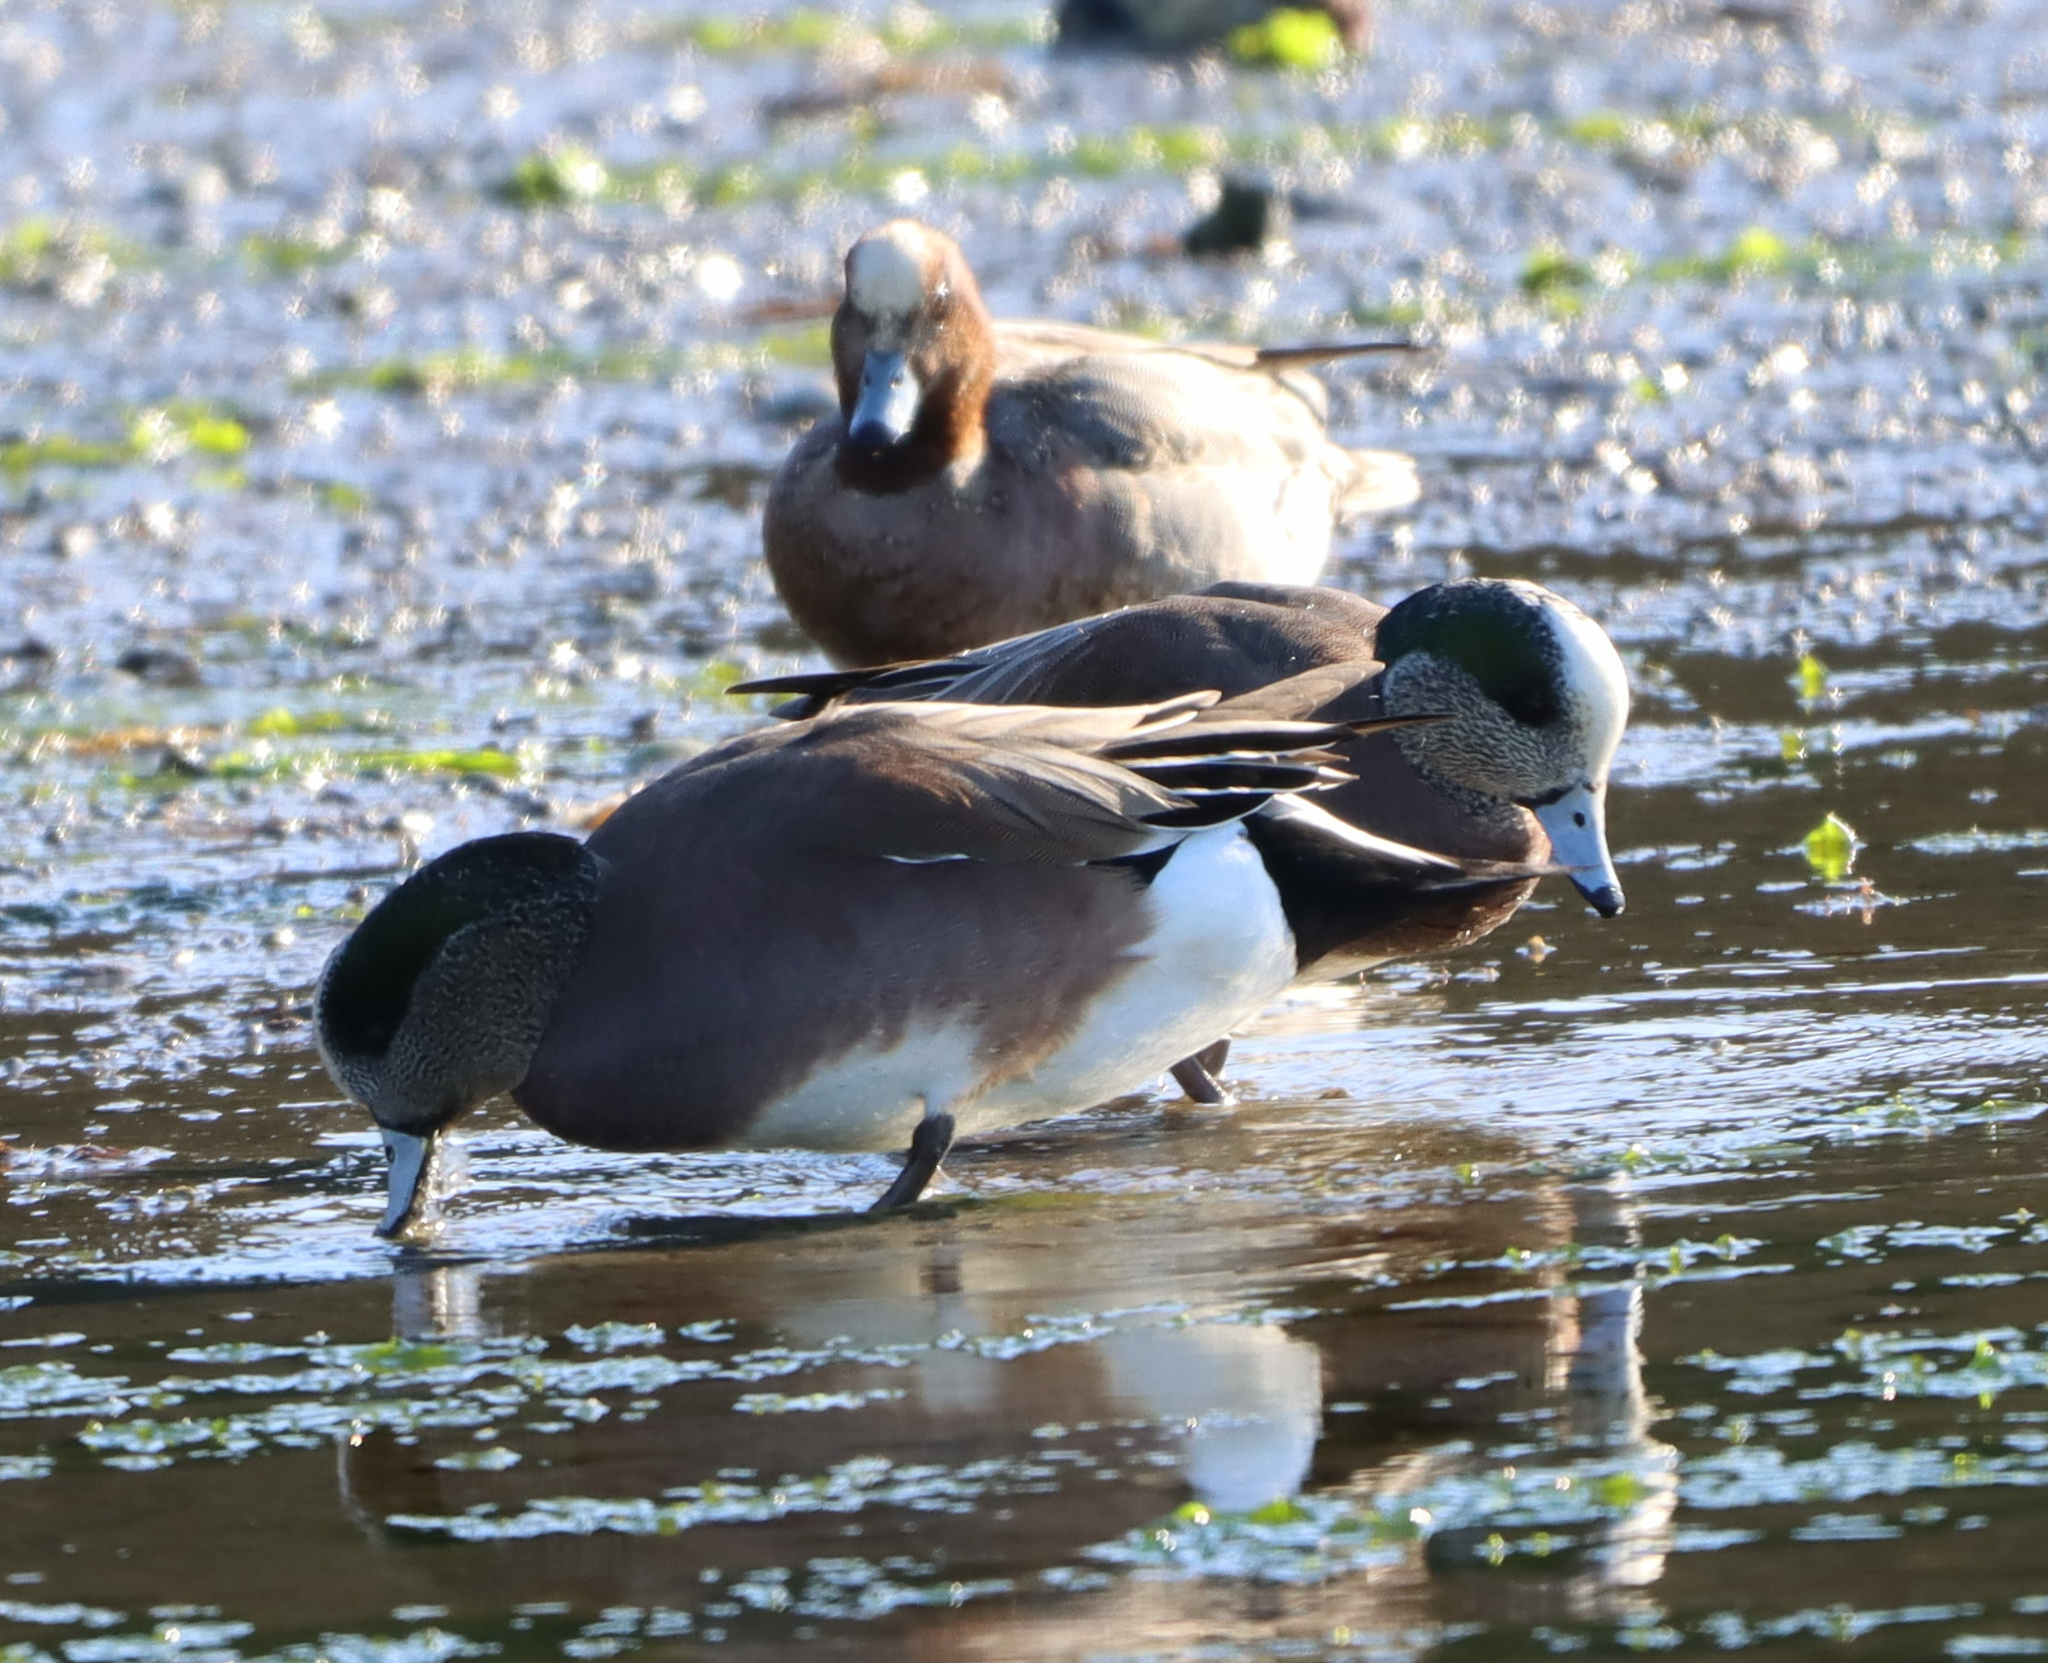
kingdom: Animalia
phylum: Chordata
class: Aves
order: Anseriformes
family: Anatidae
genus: Mareca
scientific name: Mareca americana
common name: American wigeon
